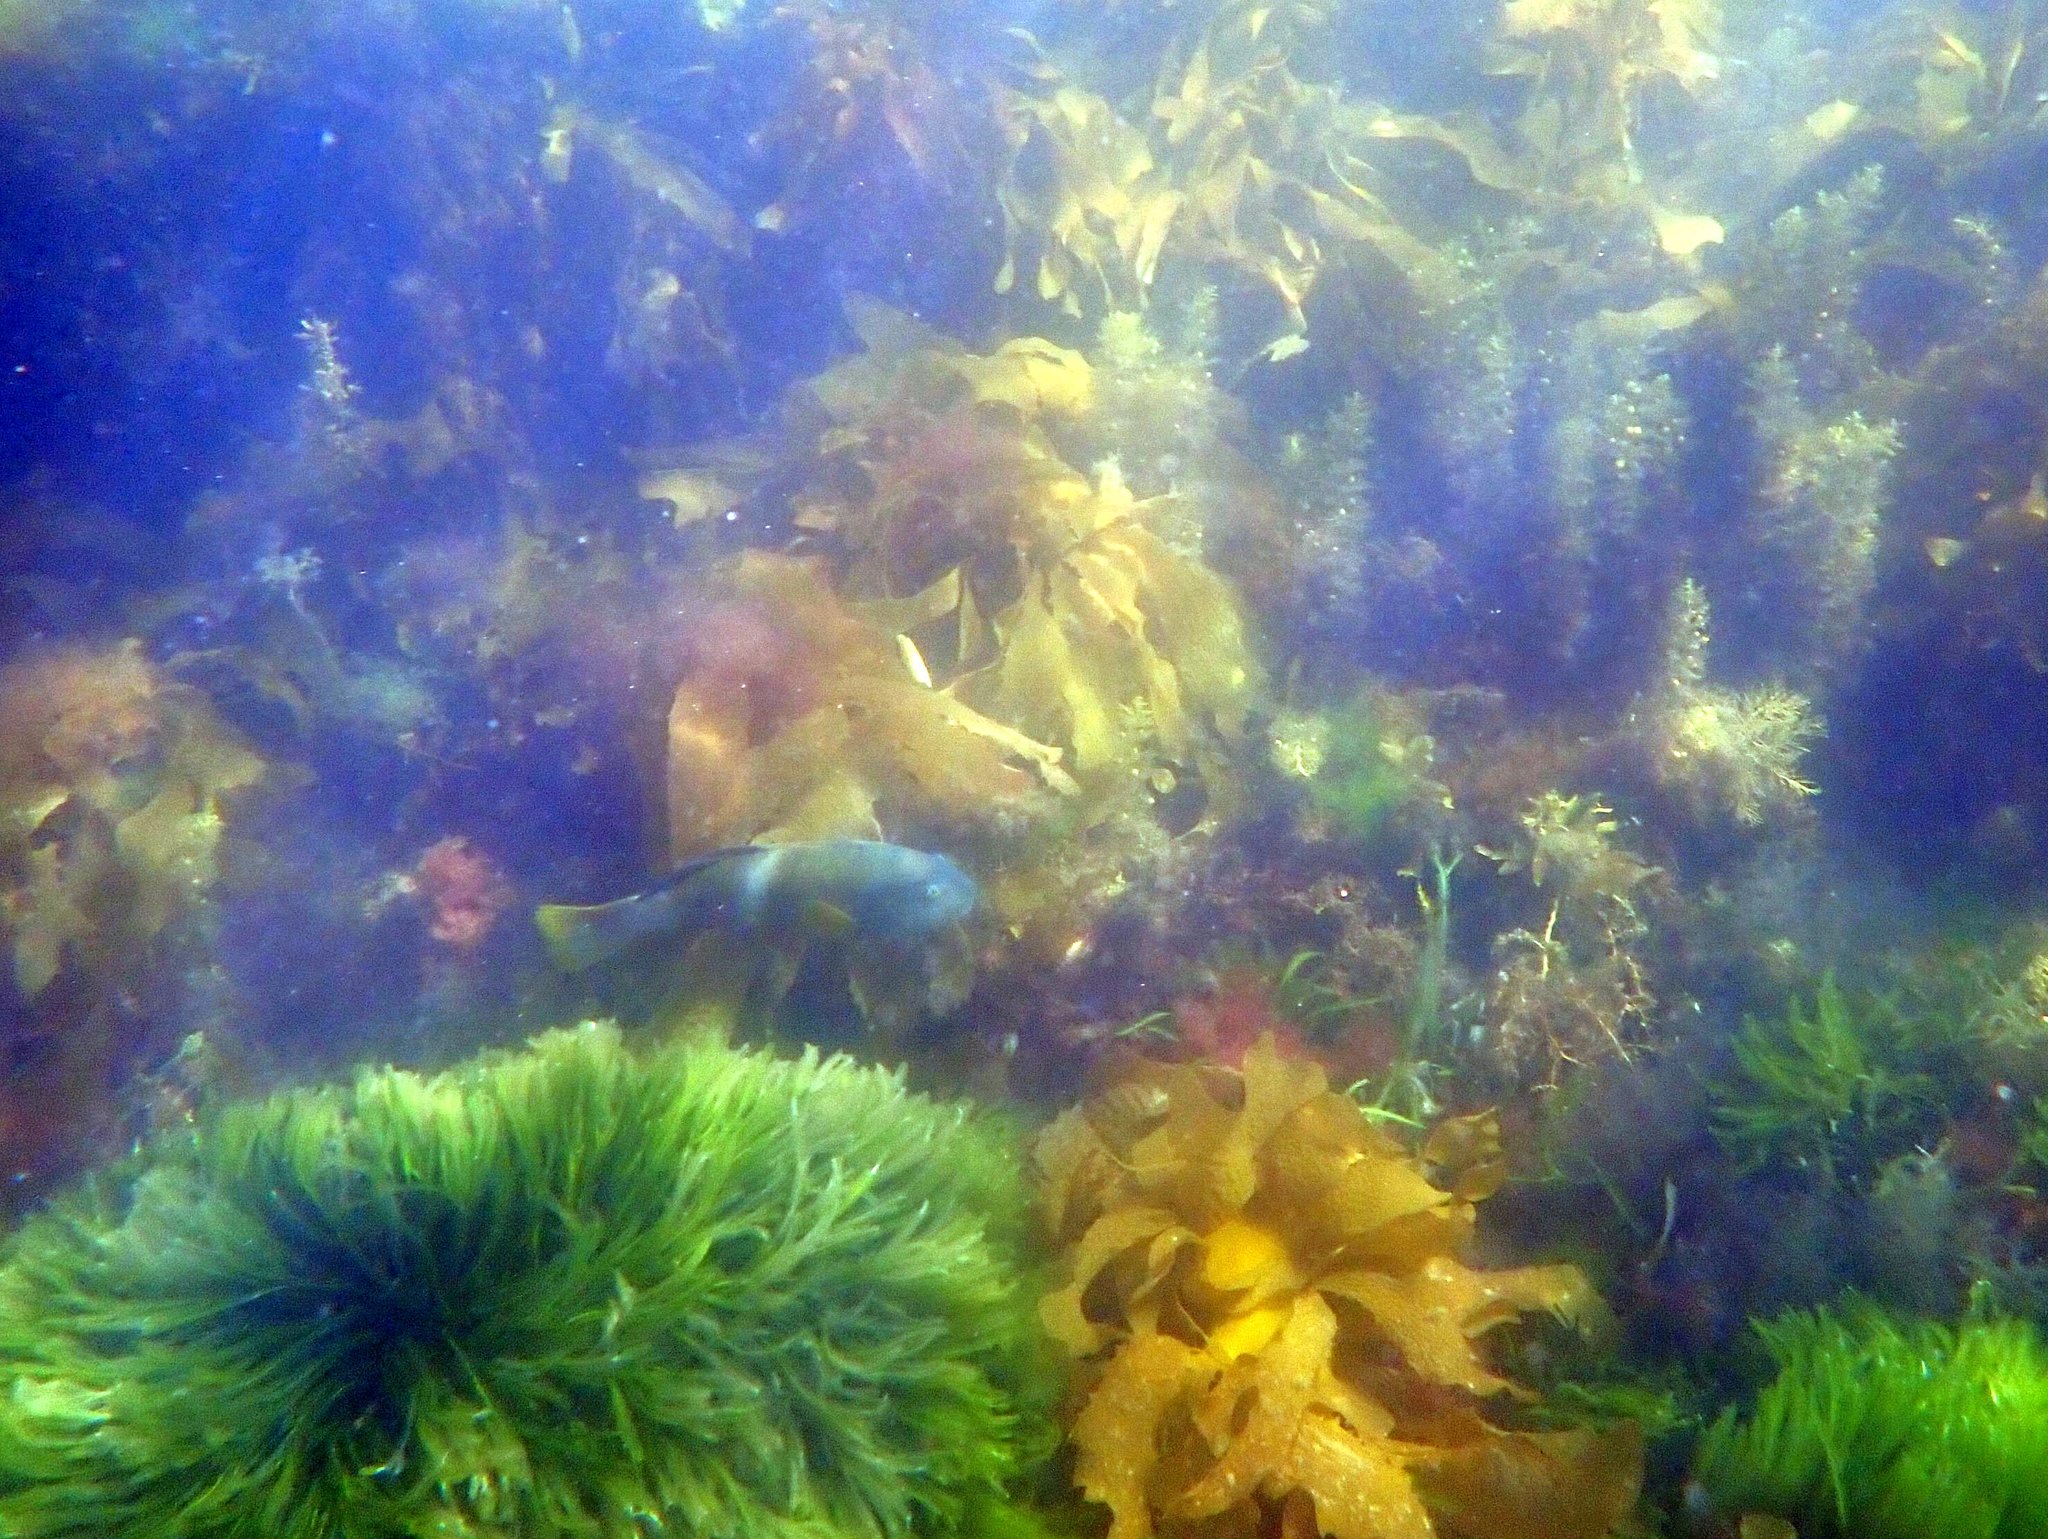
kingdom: Animalia
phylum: Chordata
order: Perciformes
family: Labridae
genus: Notolabrus
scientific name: Notolabrus tetricus
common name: Blue-throated parrotfish
